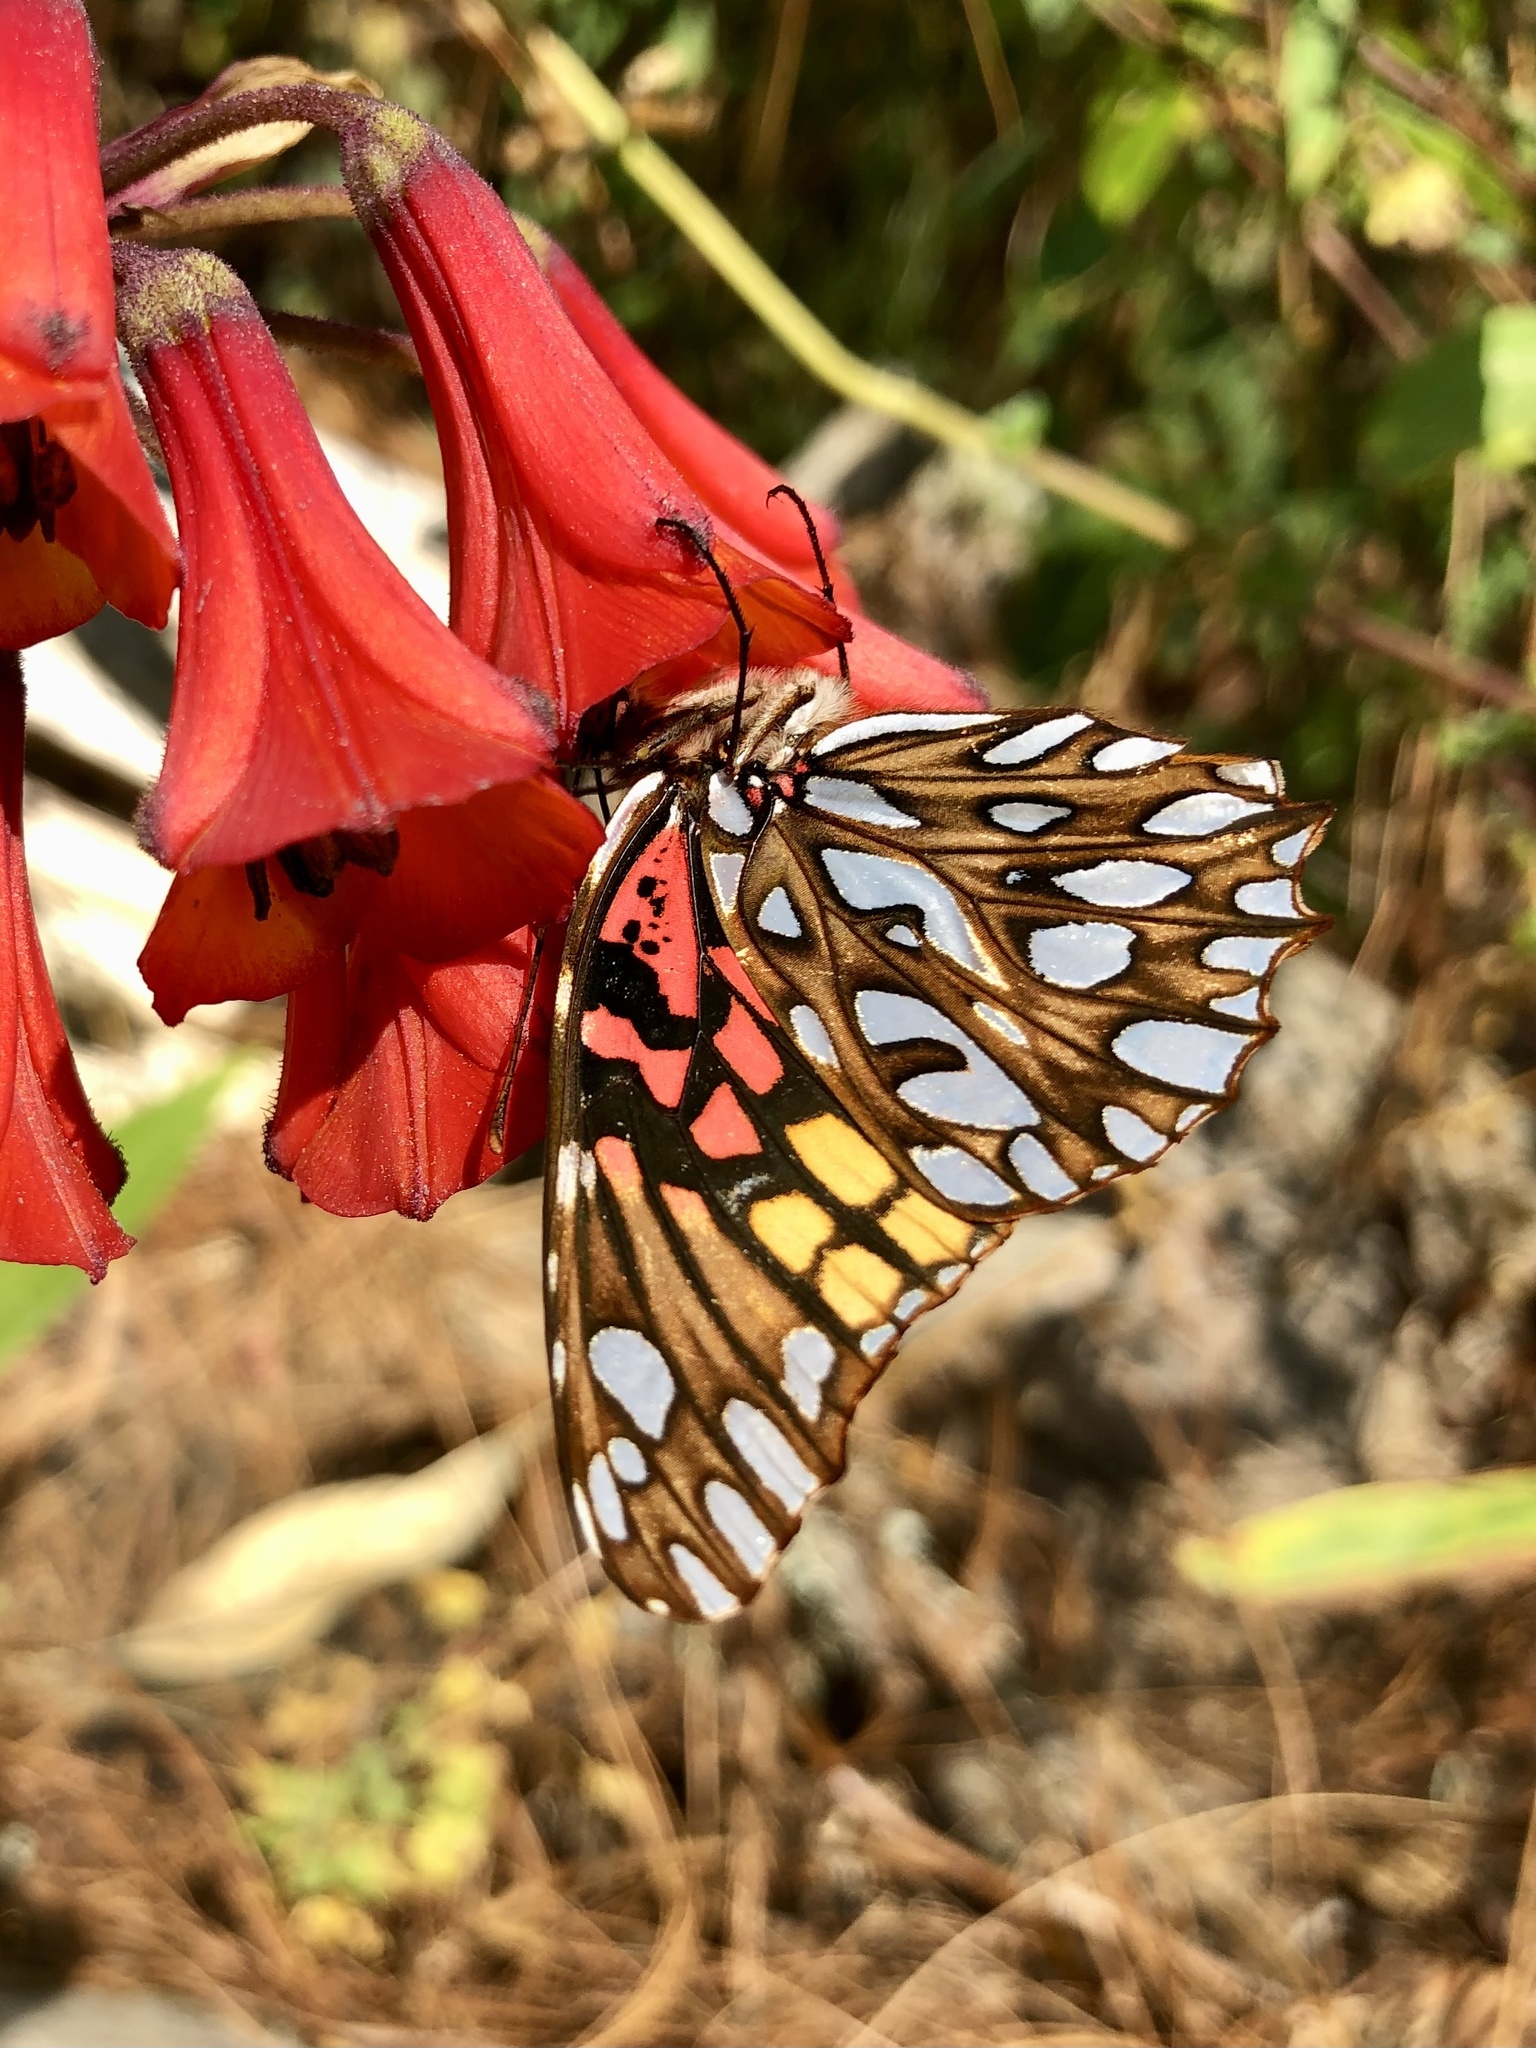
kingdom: Animalia
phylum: Arthropoda
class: Insecta
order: Lepidoptera
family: Nymphalidae
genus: Dione
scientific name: Dione moneta
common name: Mexican silverspot
